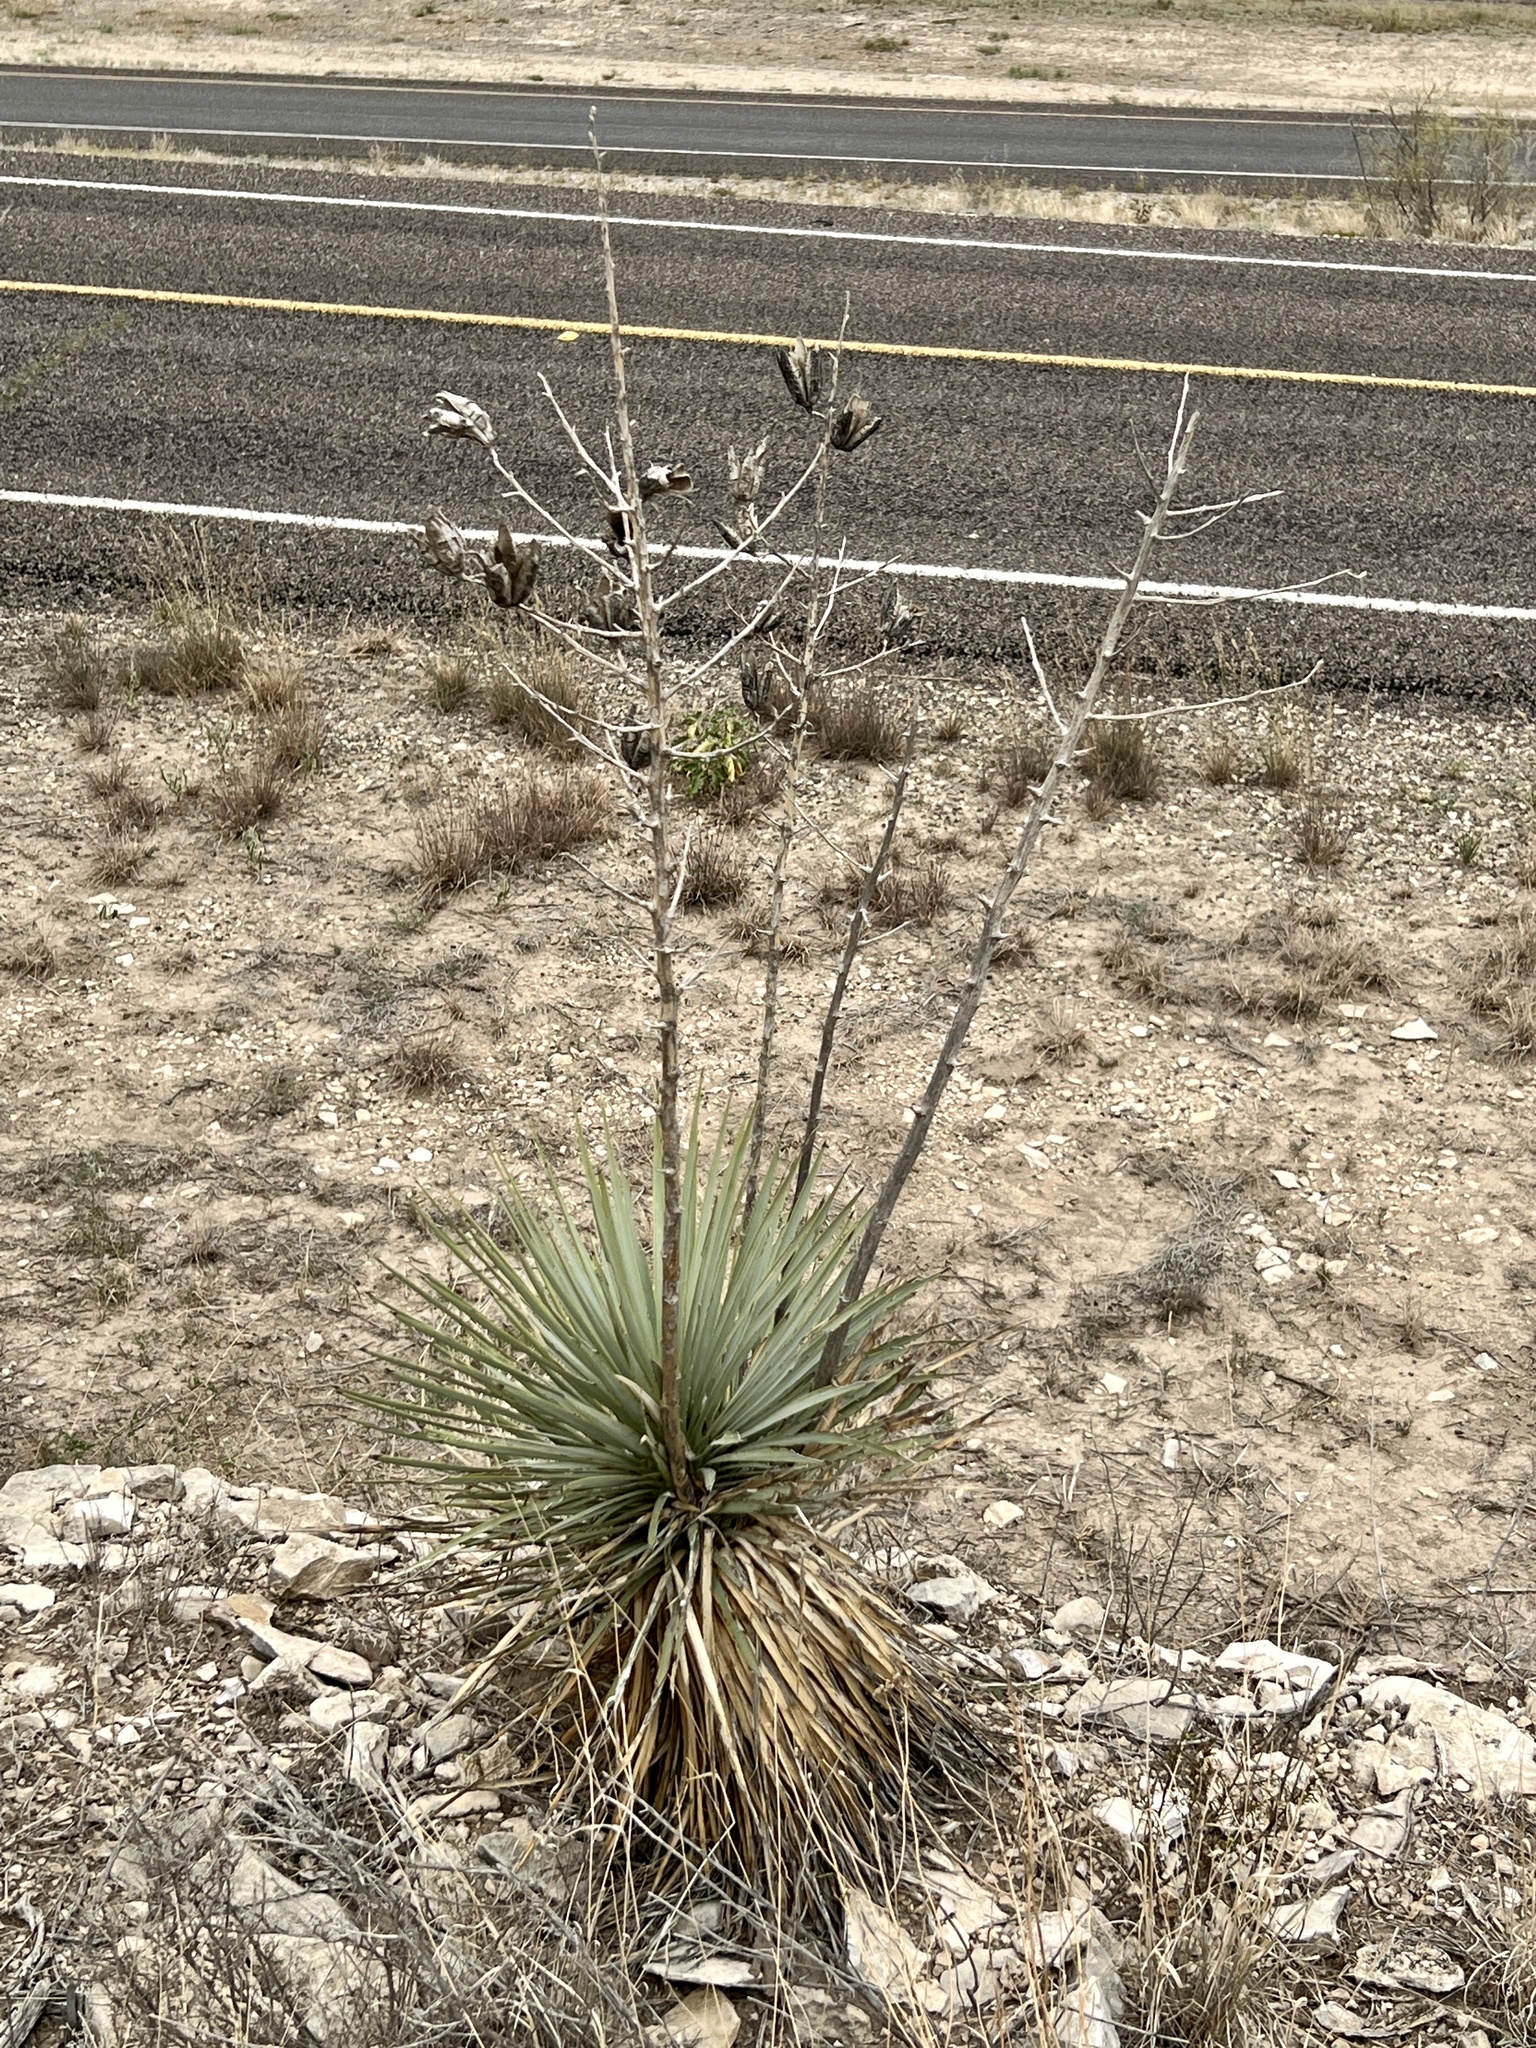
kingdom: Plantae
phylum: Tracheophyta
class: Liliopsida
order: Asparagales
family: Asparagaceae
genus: Yucca
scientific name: Yucca thompsoniana
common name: Trans-pecos yucca
